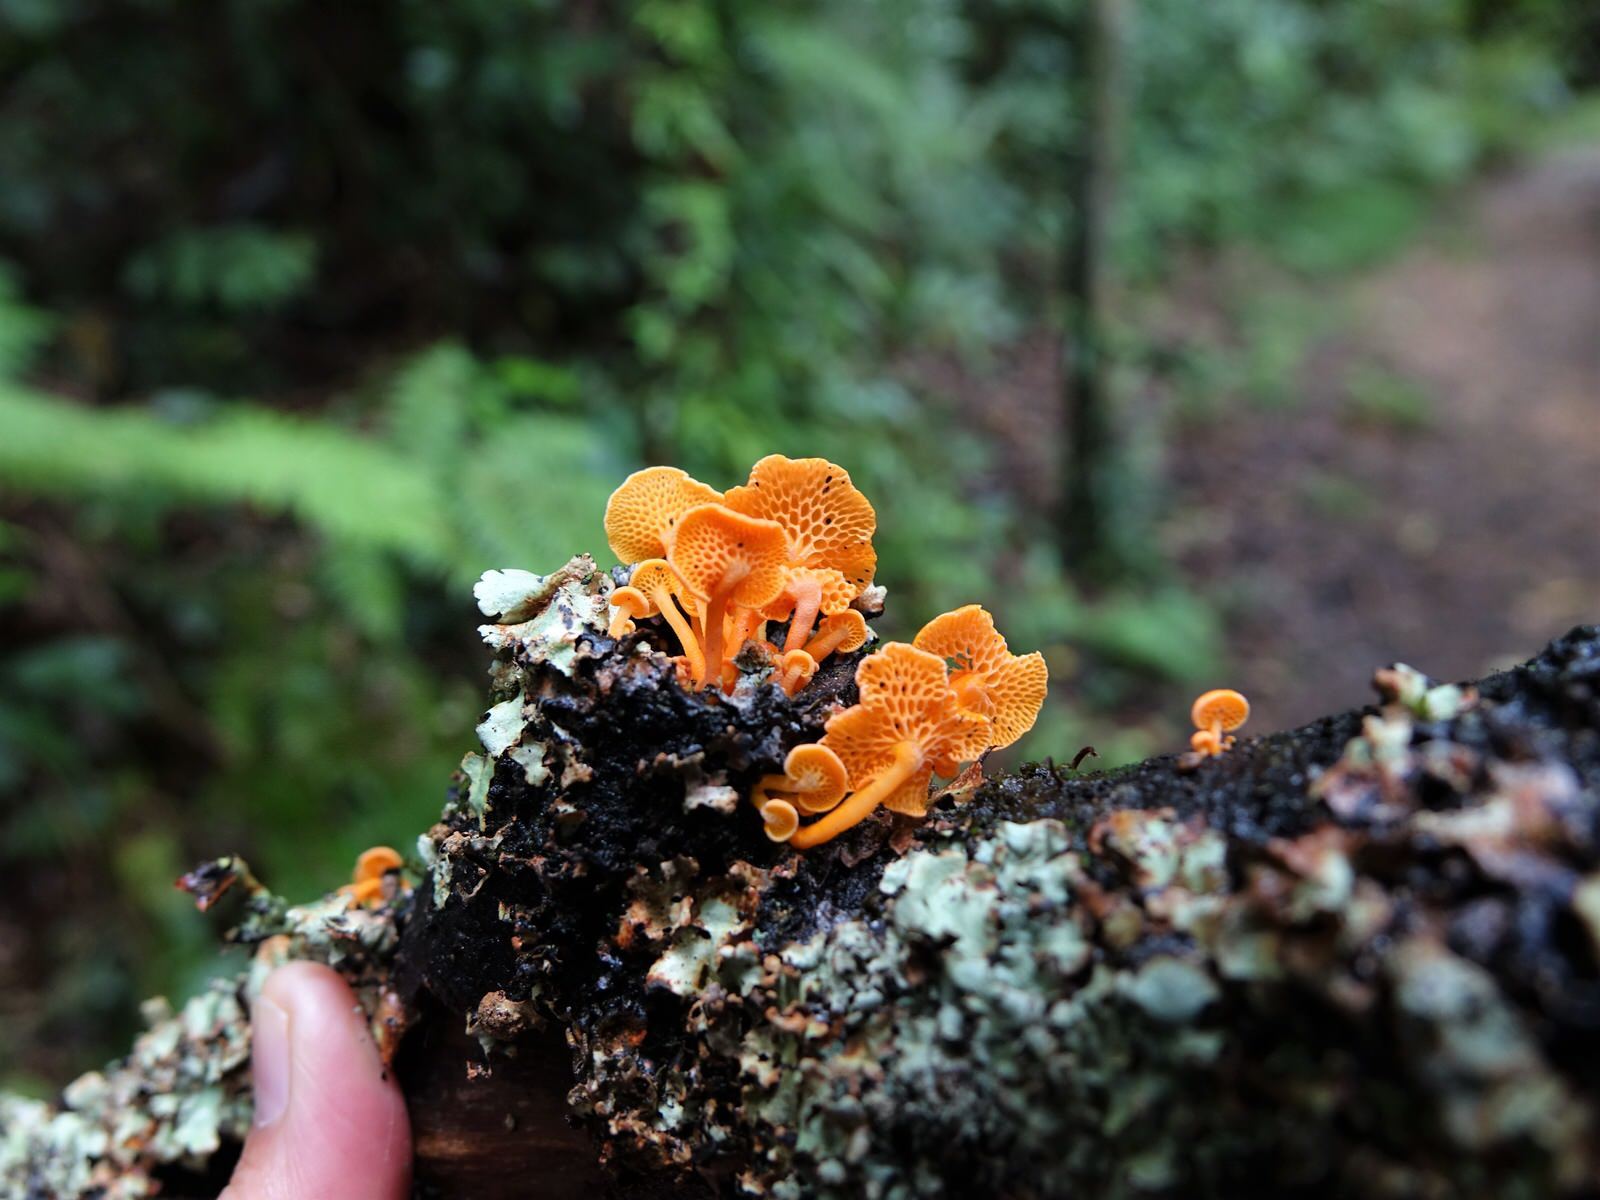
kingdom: Fungi
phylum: Basidiomycota
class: Agaricomycetes
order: Agaricales
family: Mycenaceae
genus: Favolaschia
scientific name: Favolaschia claudopus
